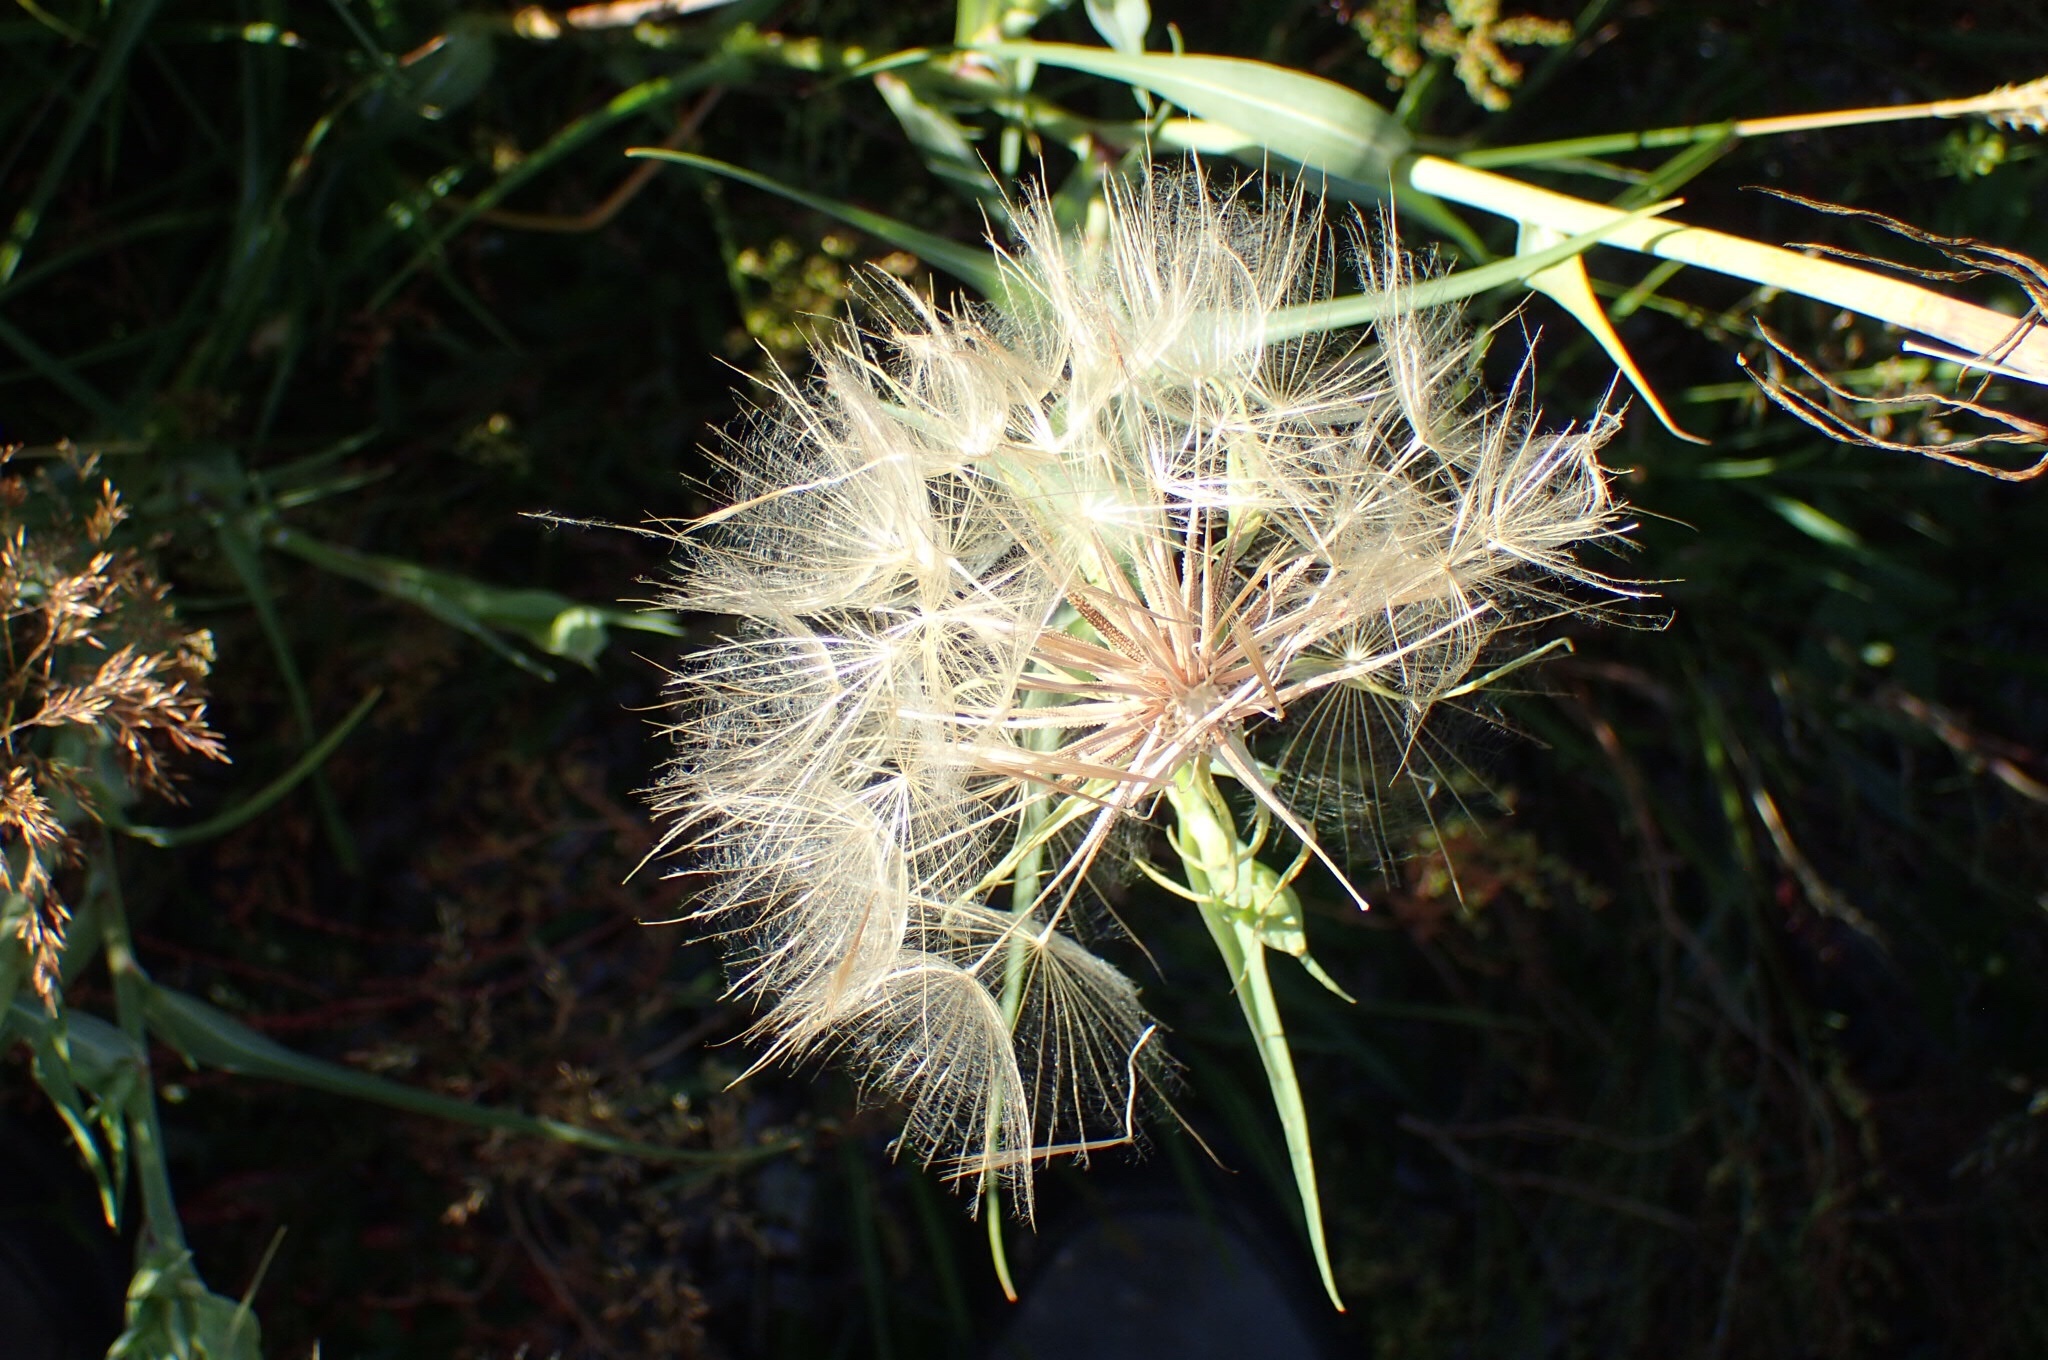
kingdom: Plantae
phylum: Tracheophyta
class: Magnoliopsida
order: Asterales
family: Asteraceae
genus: Tragopogon
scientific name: Tragopogon dubius
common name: Yellow salsify
